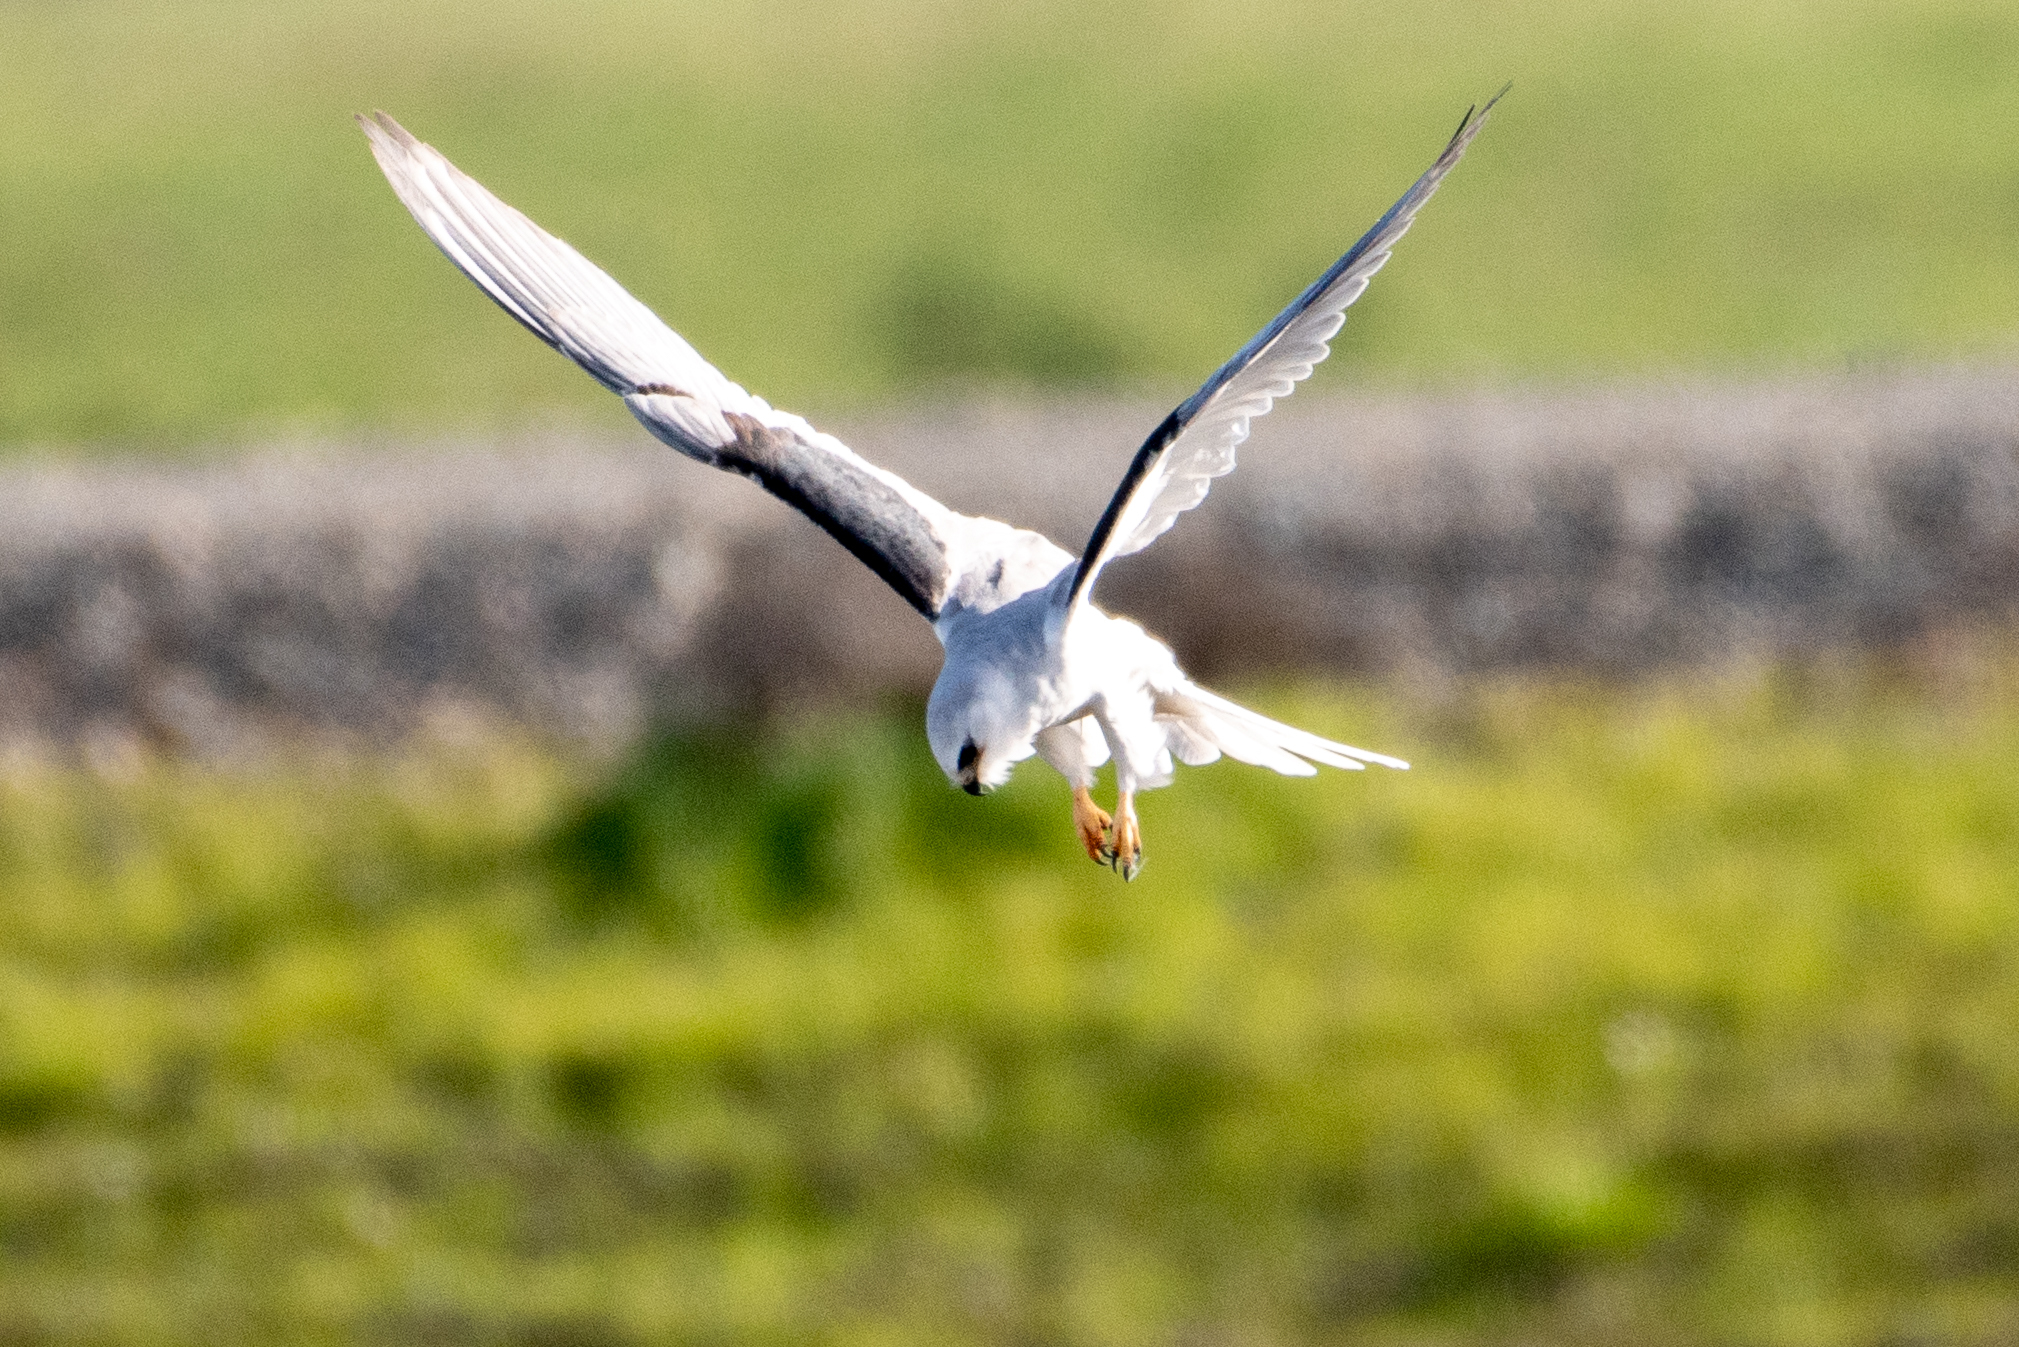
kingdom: Animalia
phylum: Chordata
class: Aves
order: Accipitriformes
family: Accipitridae
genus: Elanus
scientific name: Elanus leucurus
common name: White-tailed kite
